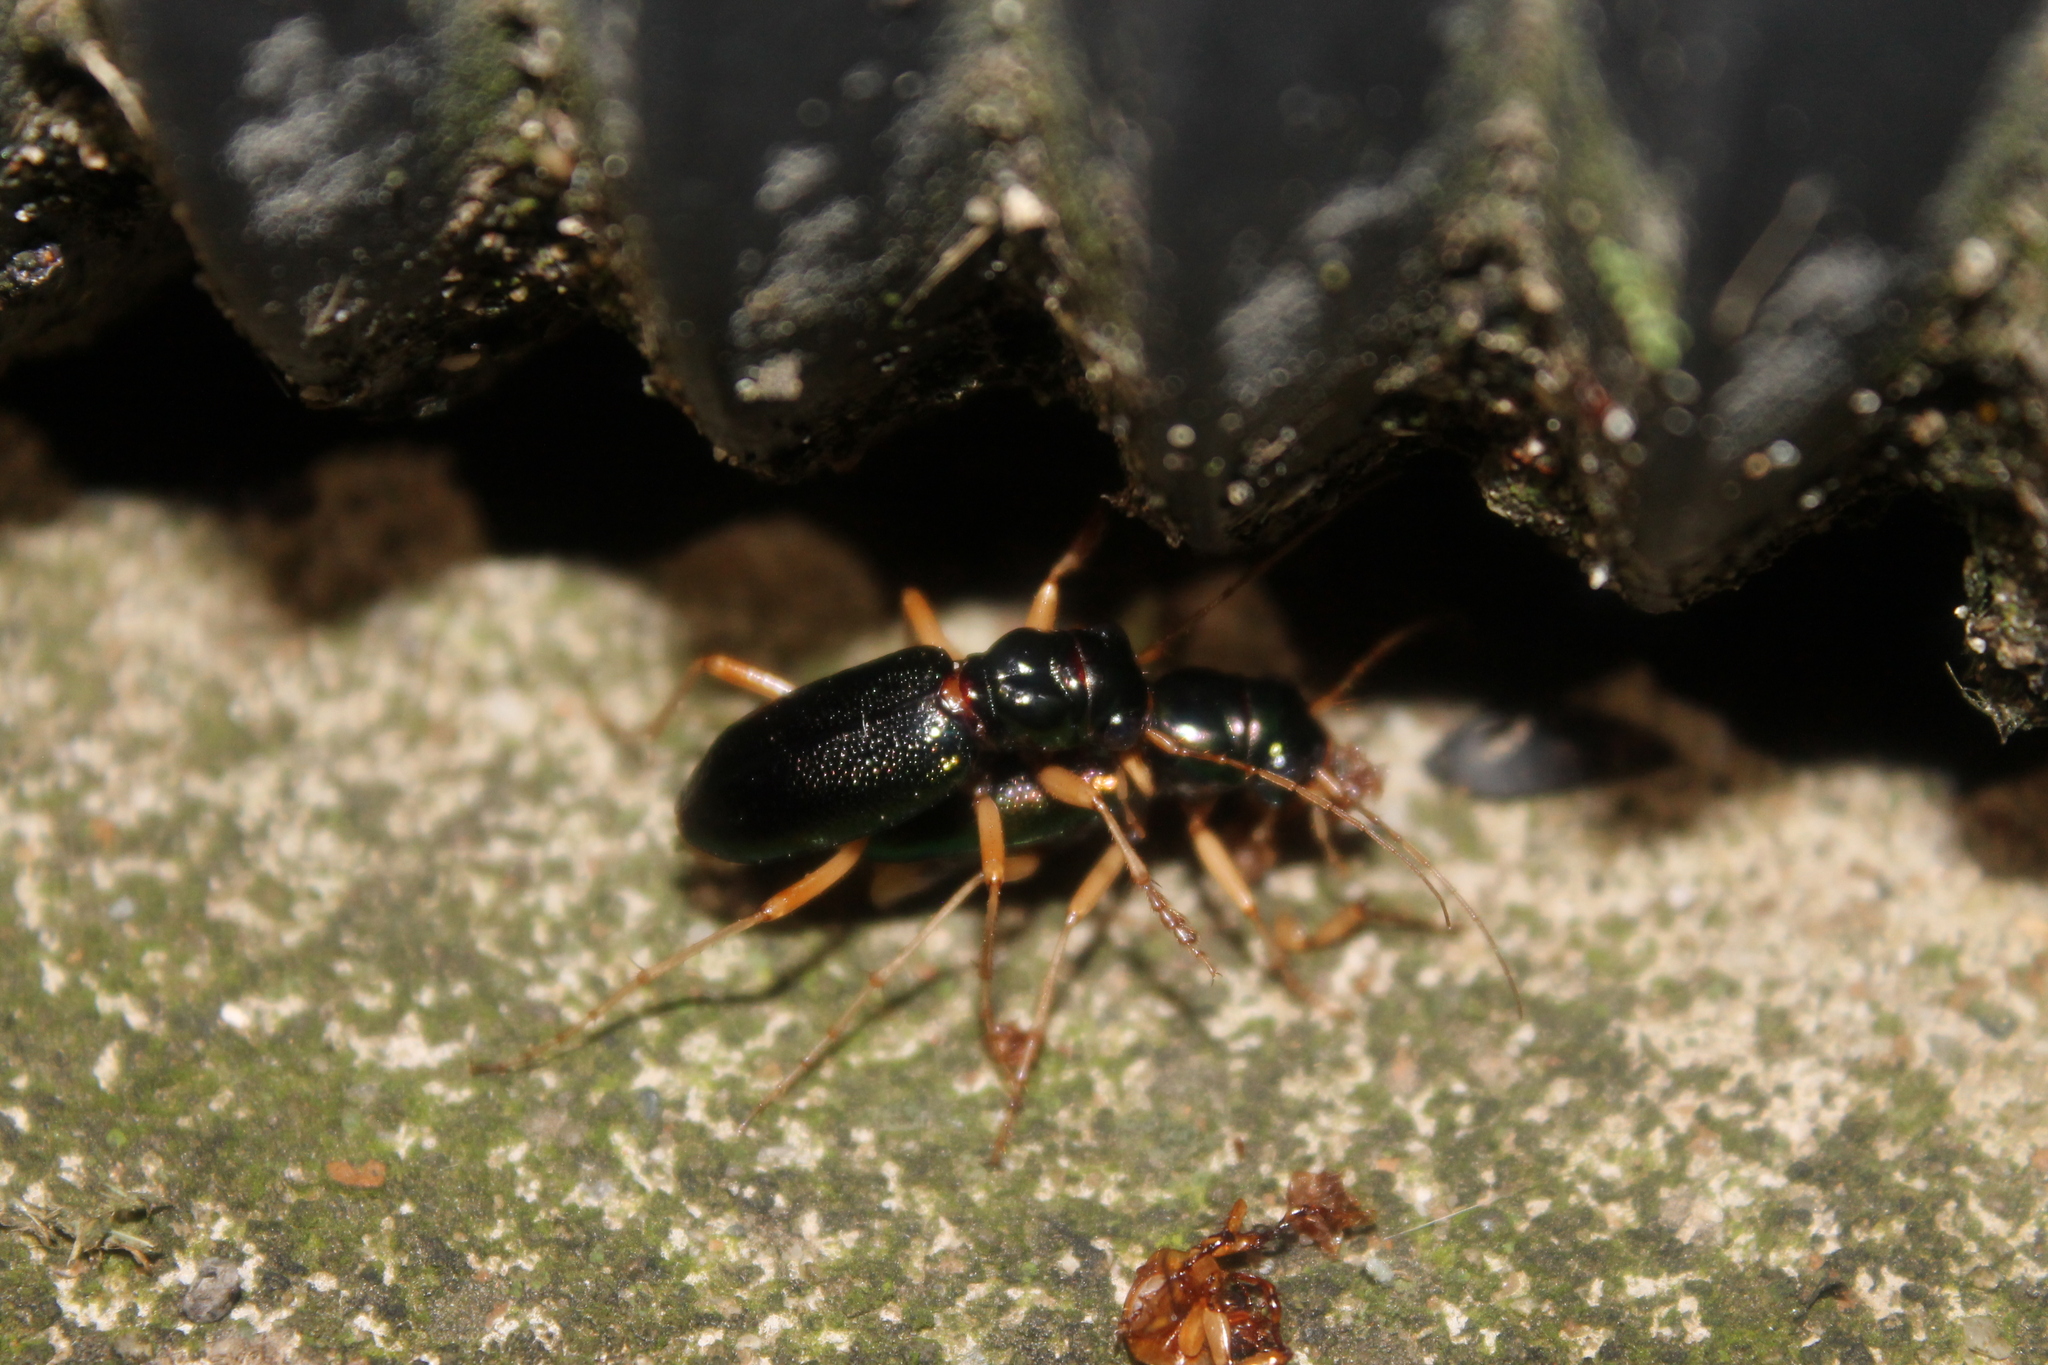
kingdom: Animalia
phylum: Arthropoda
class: Insecta
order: Coleoptera
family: Carabidae
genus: Tetracha
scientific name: Tetracha virginica
